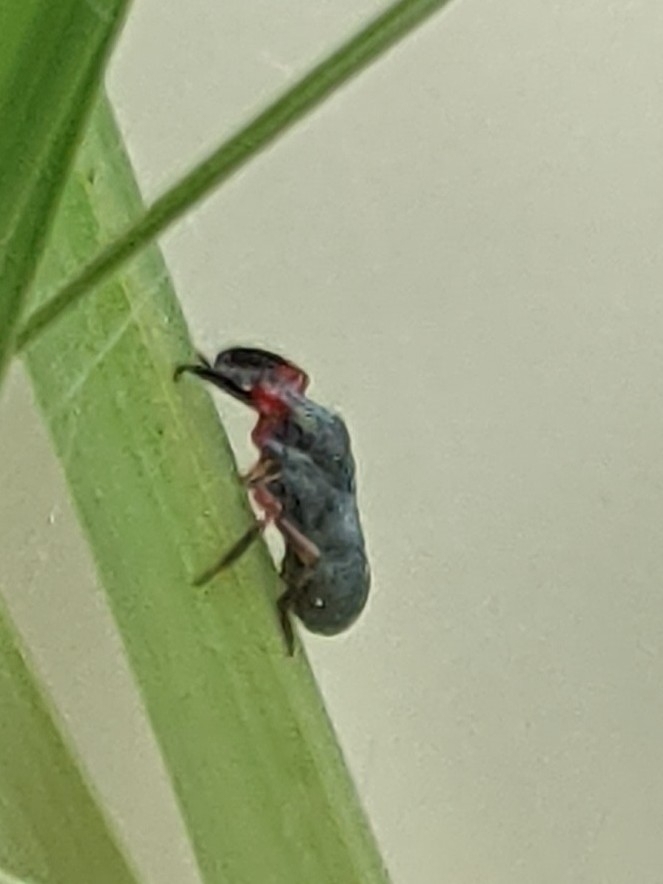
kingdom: Animalia
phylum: Arthropoda
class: Insecta
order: Hemiptera
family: Caliscelidae
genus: Fitchiella
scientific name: Fitchiella rufipes
